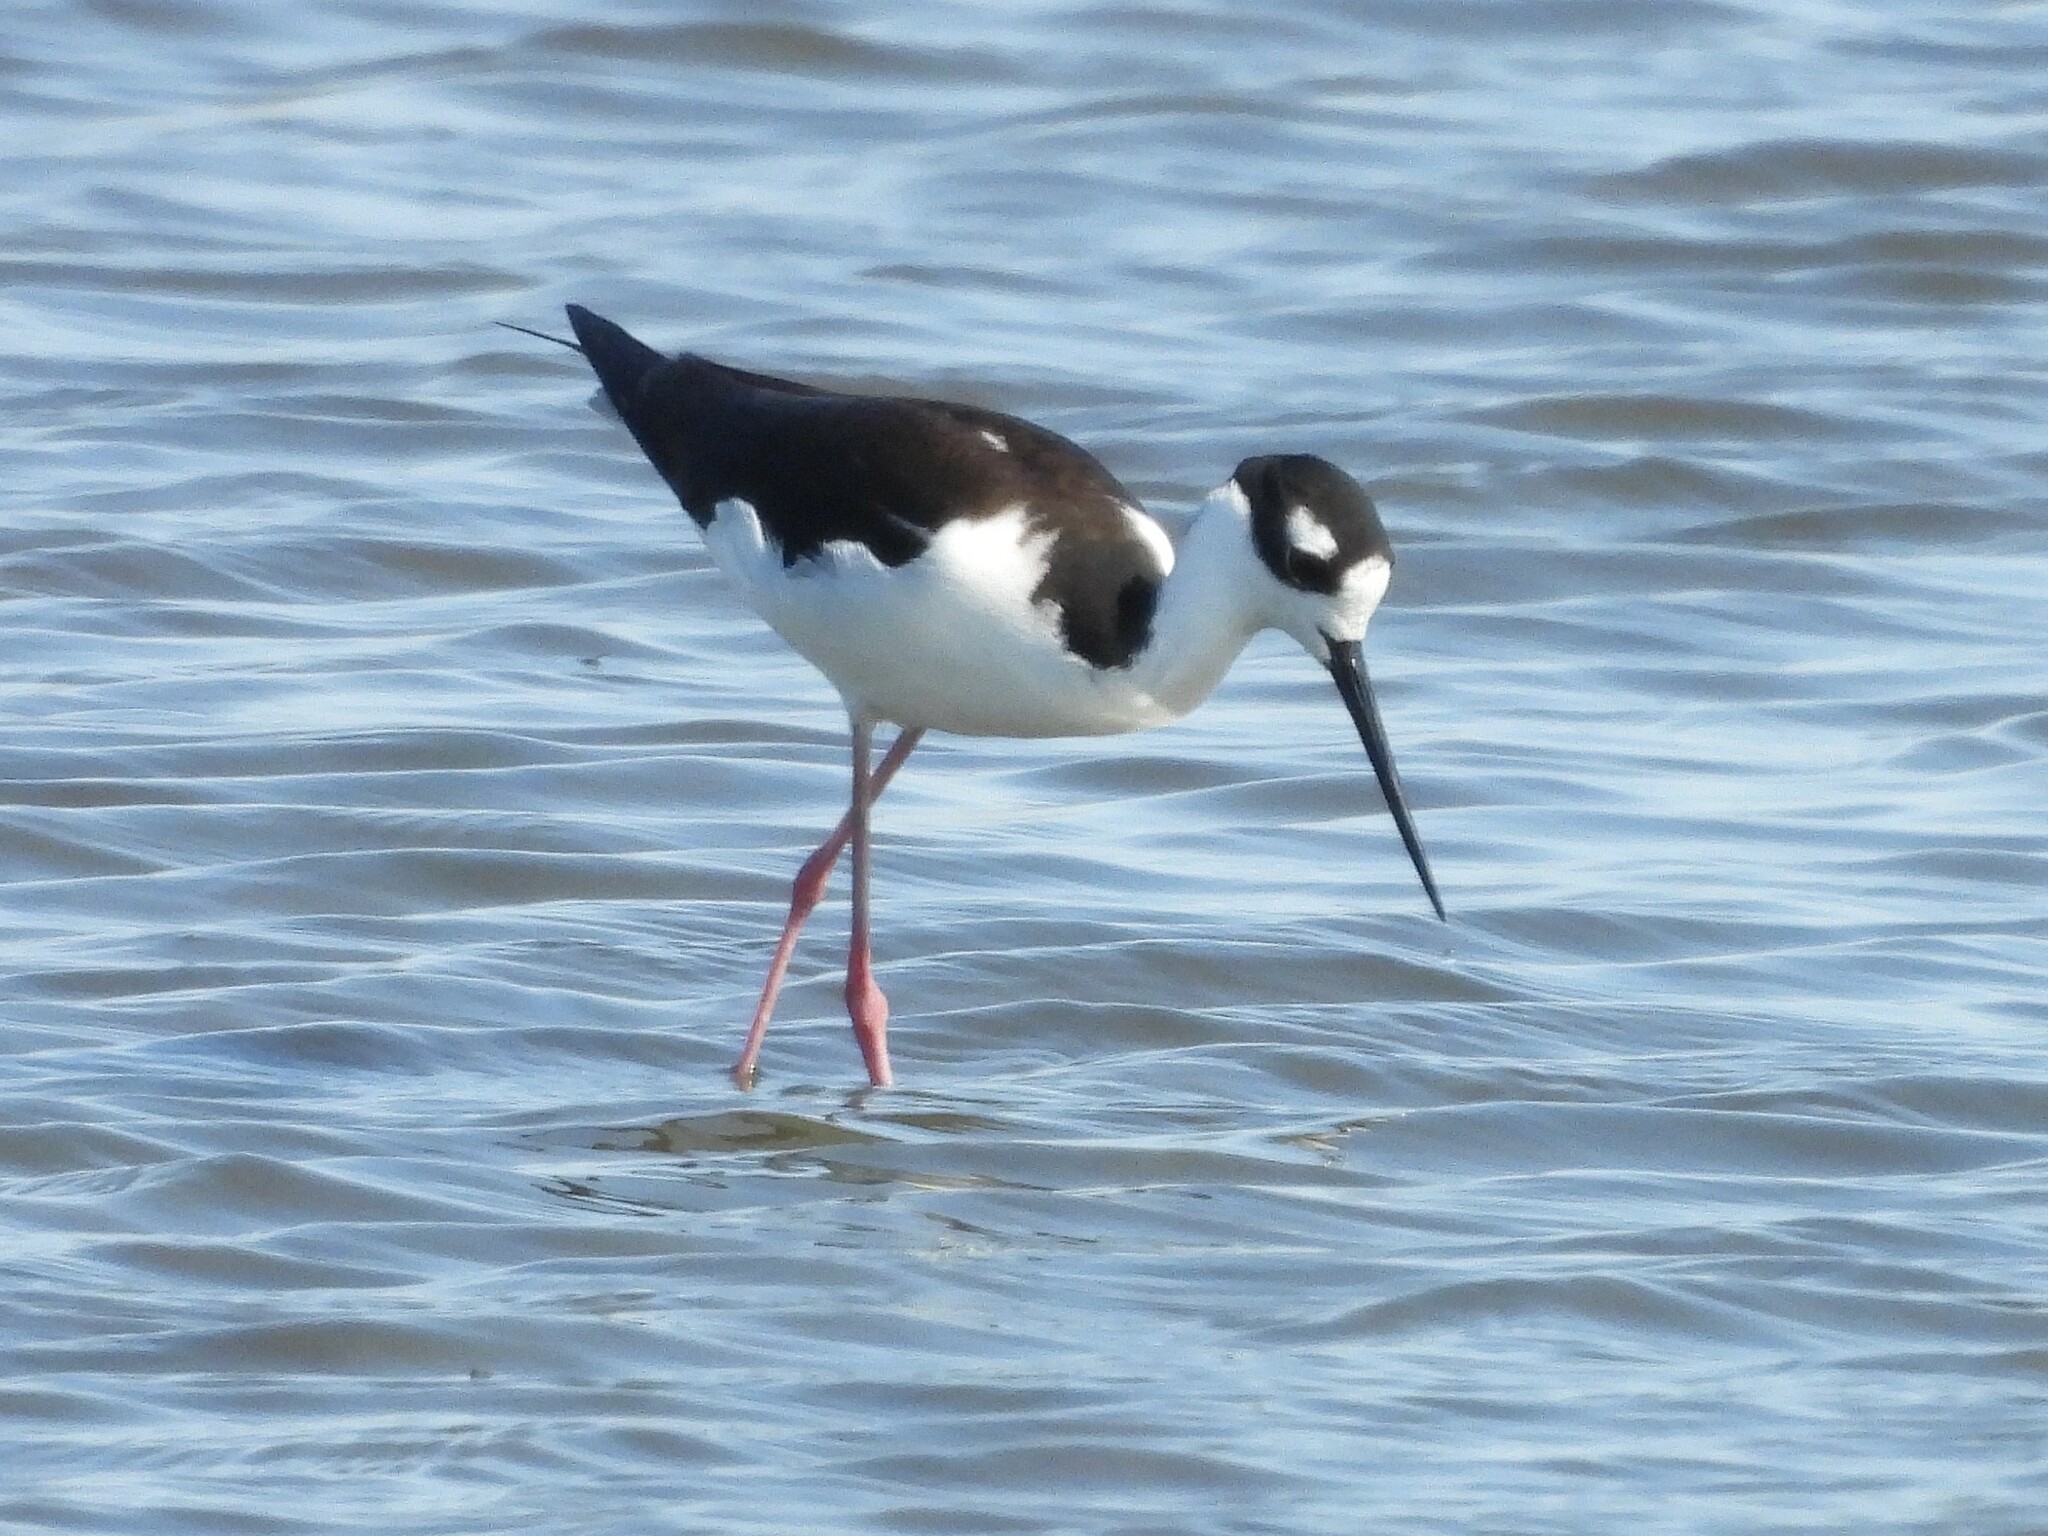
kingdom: Animalia
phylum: Chordata
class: Aves
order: Charadriiformes
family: Recurvirostridae
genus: Himantopus
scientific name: Himantopus mexicanus
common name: Black-necked stilt
